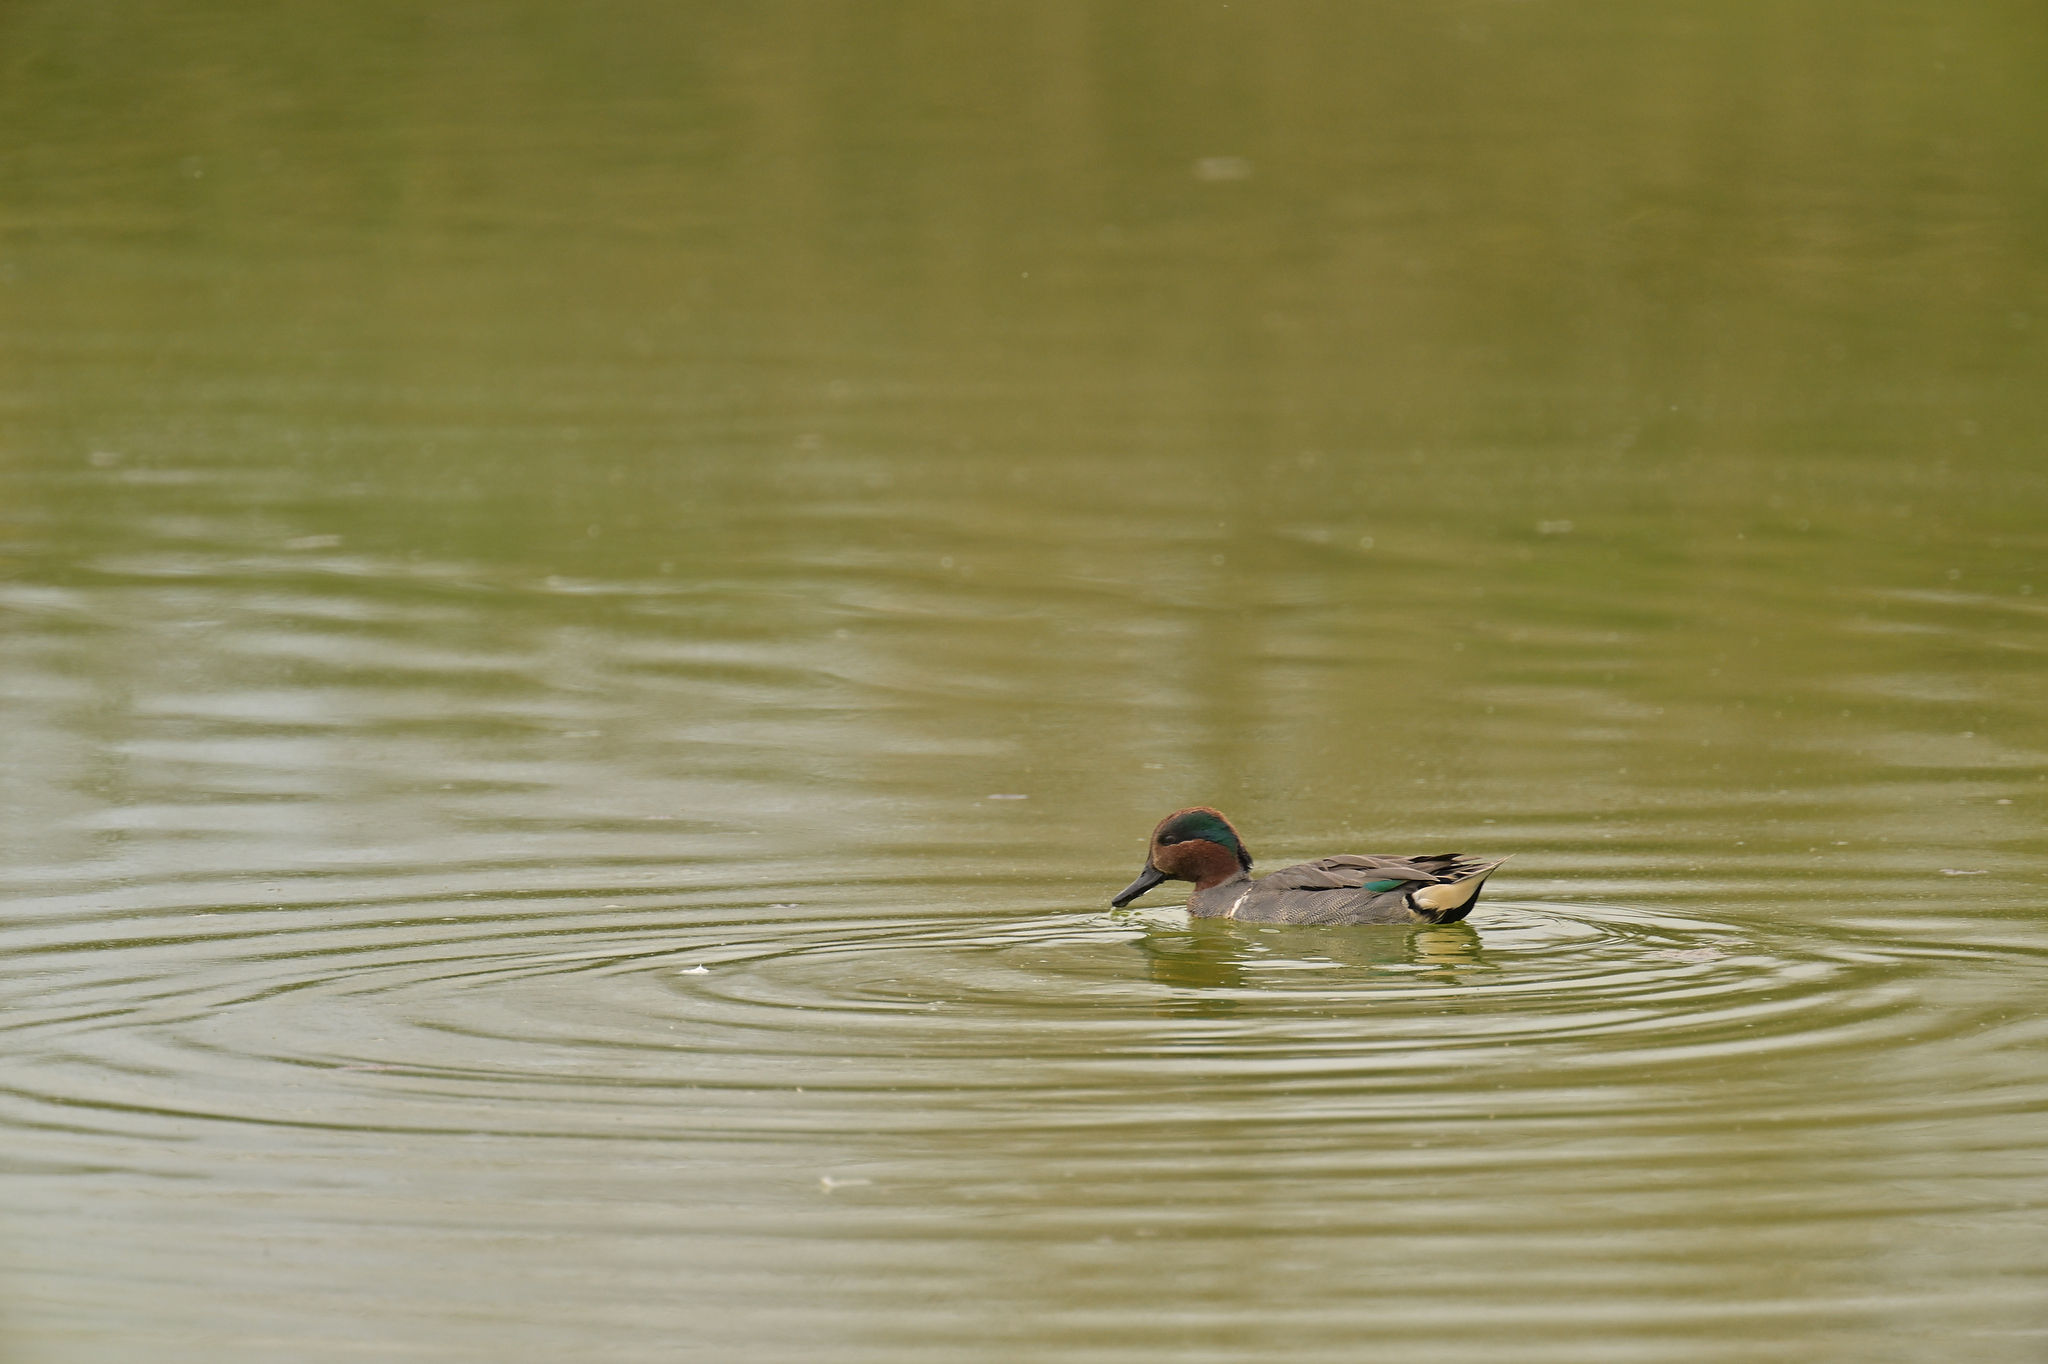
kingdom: Animalia
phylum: Chordata
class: Aves
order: Anseriformes
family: Anatidae
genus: Anas
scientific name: Anas crecca
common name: Eurasian teal
